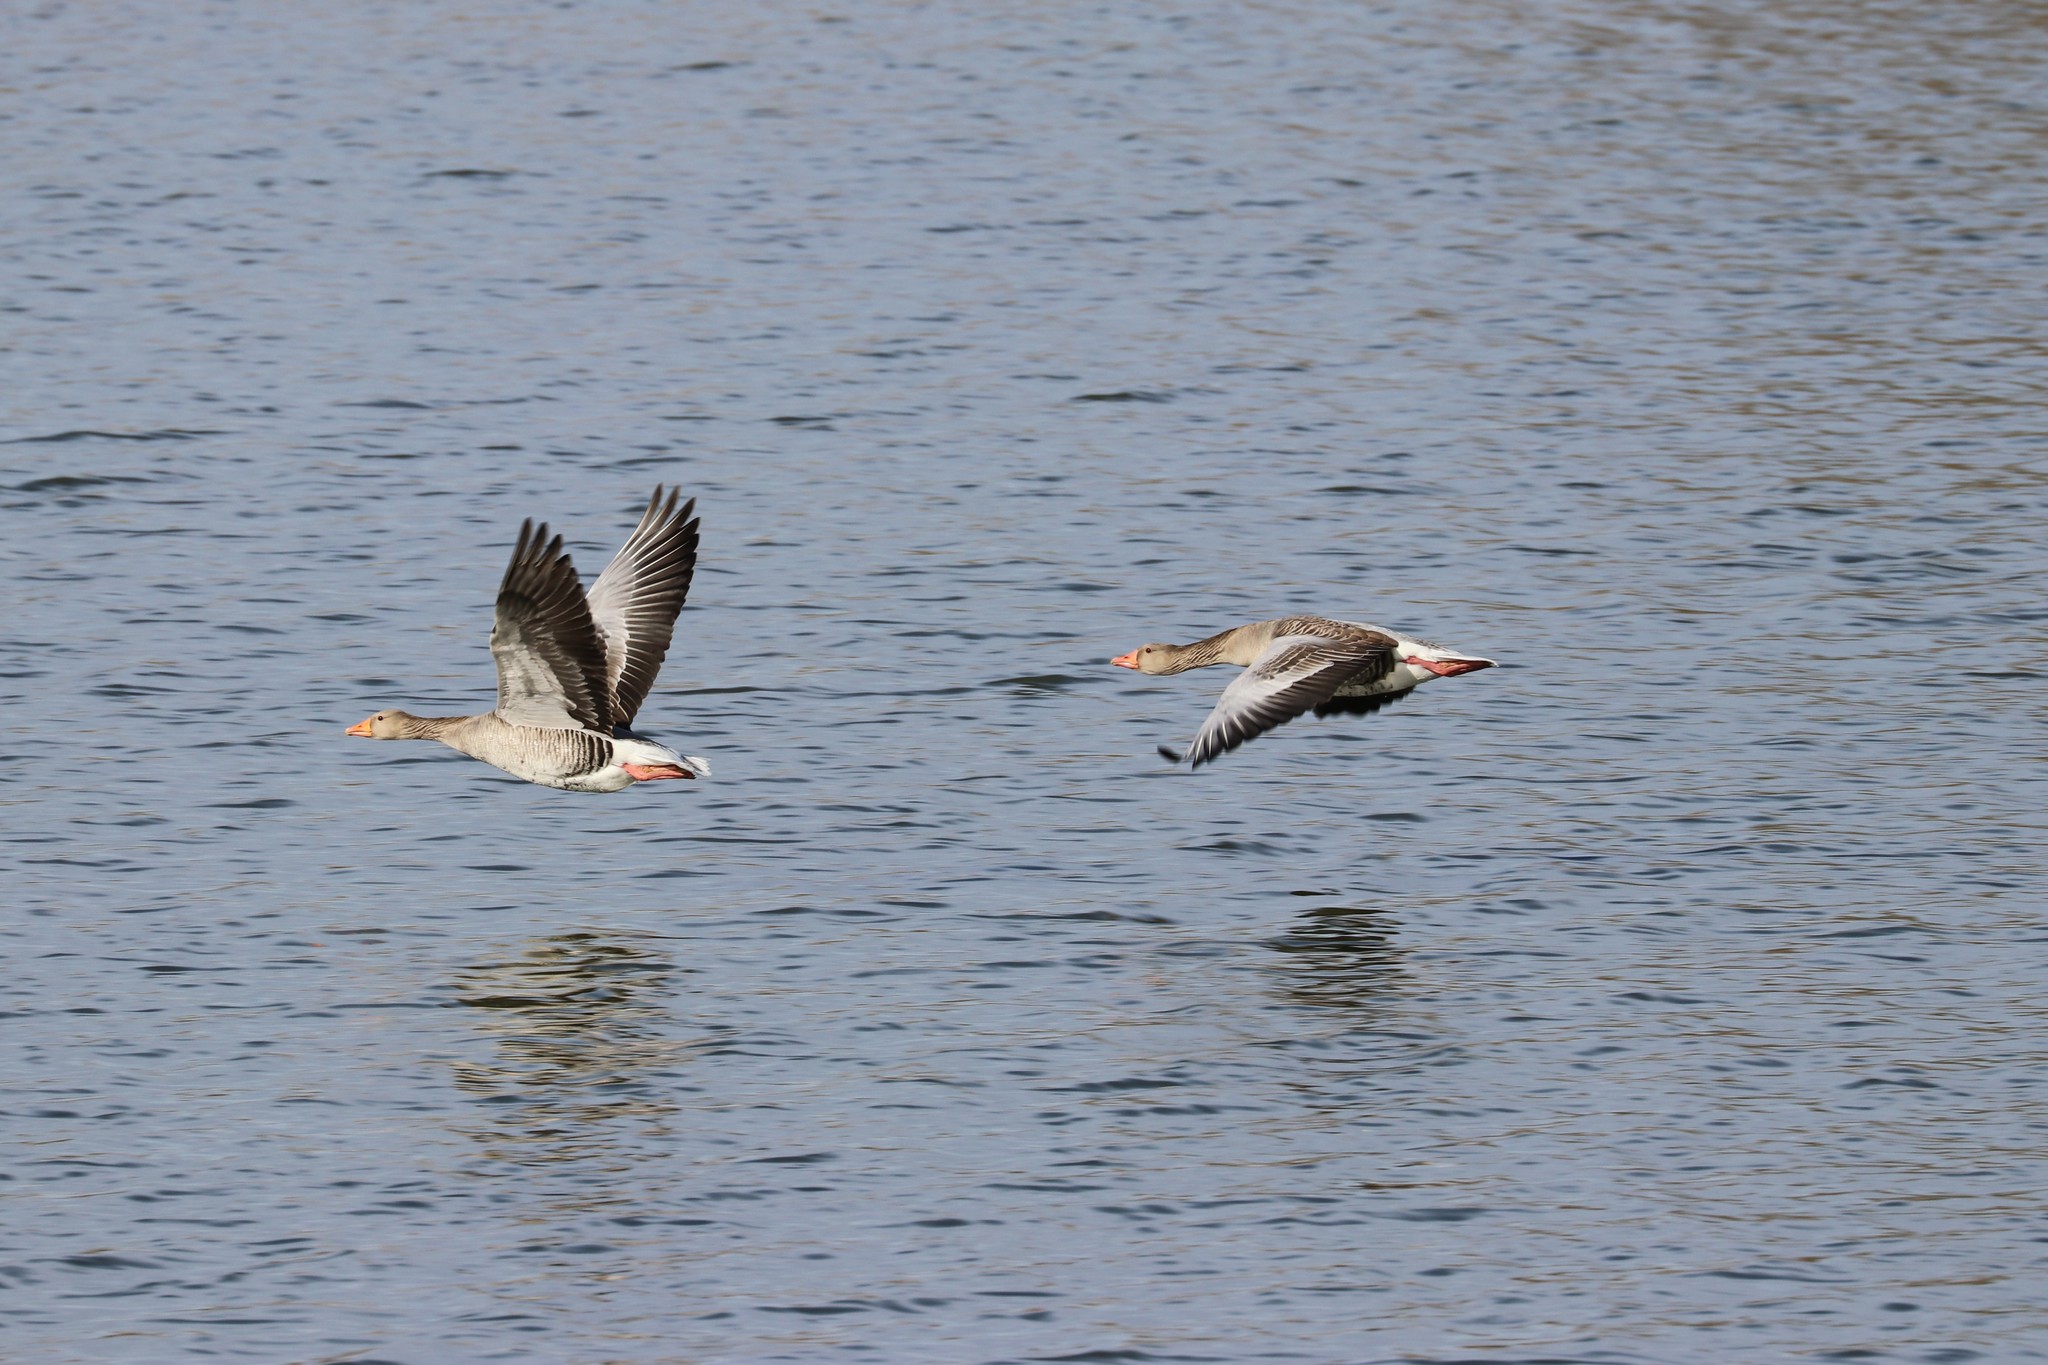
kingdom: Animalia
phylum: Chordata
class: Aves
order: Anseriformes
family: Anatidae
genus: Anser
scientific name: Anser anser
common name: Greylag goose
